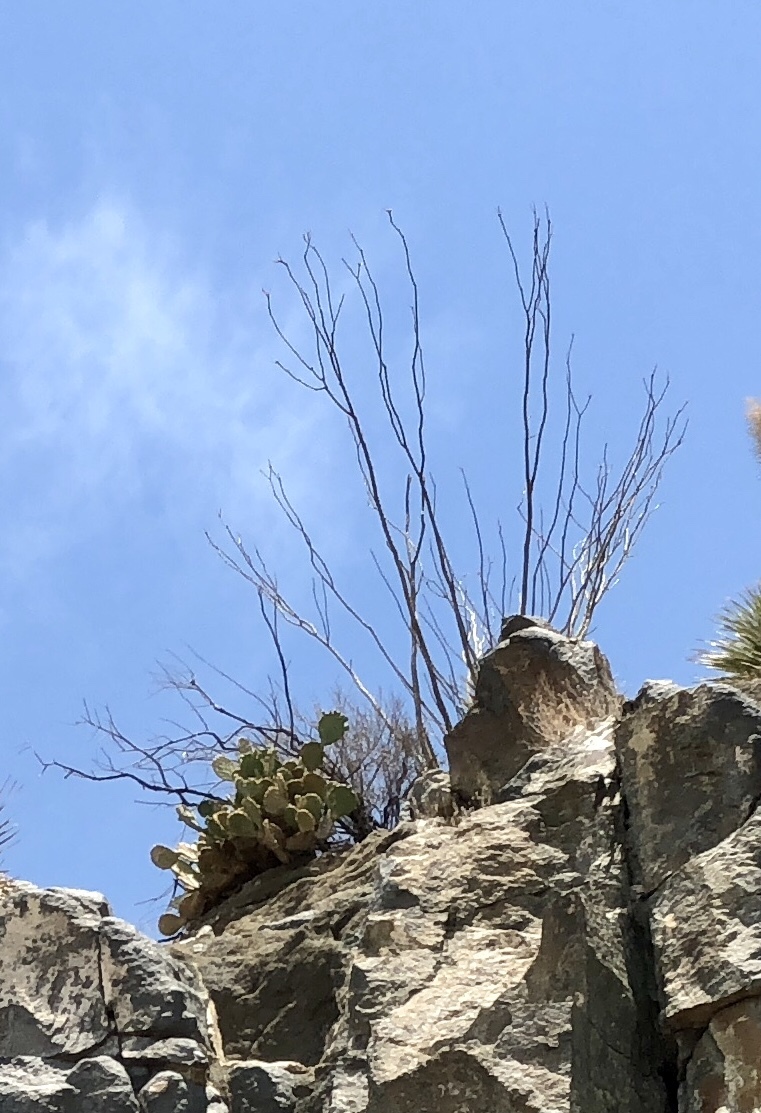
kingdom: Plantae
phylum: Tracheophyta
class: Magnoliopsida
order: Ericales
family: Fouquieriaceae
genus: Fouquieria
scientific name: Fouquieria splendens
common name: Vine-cactus
